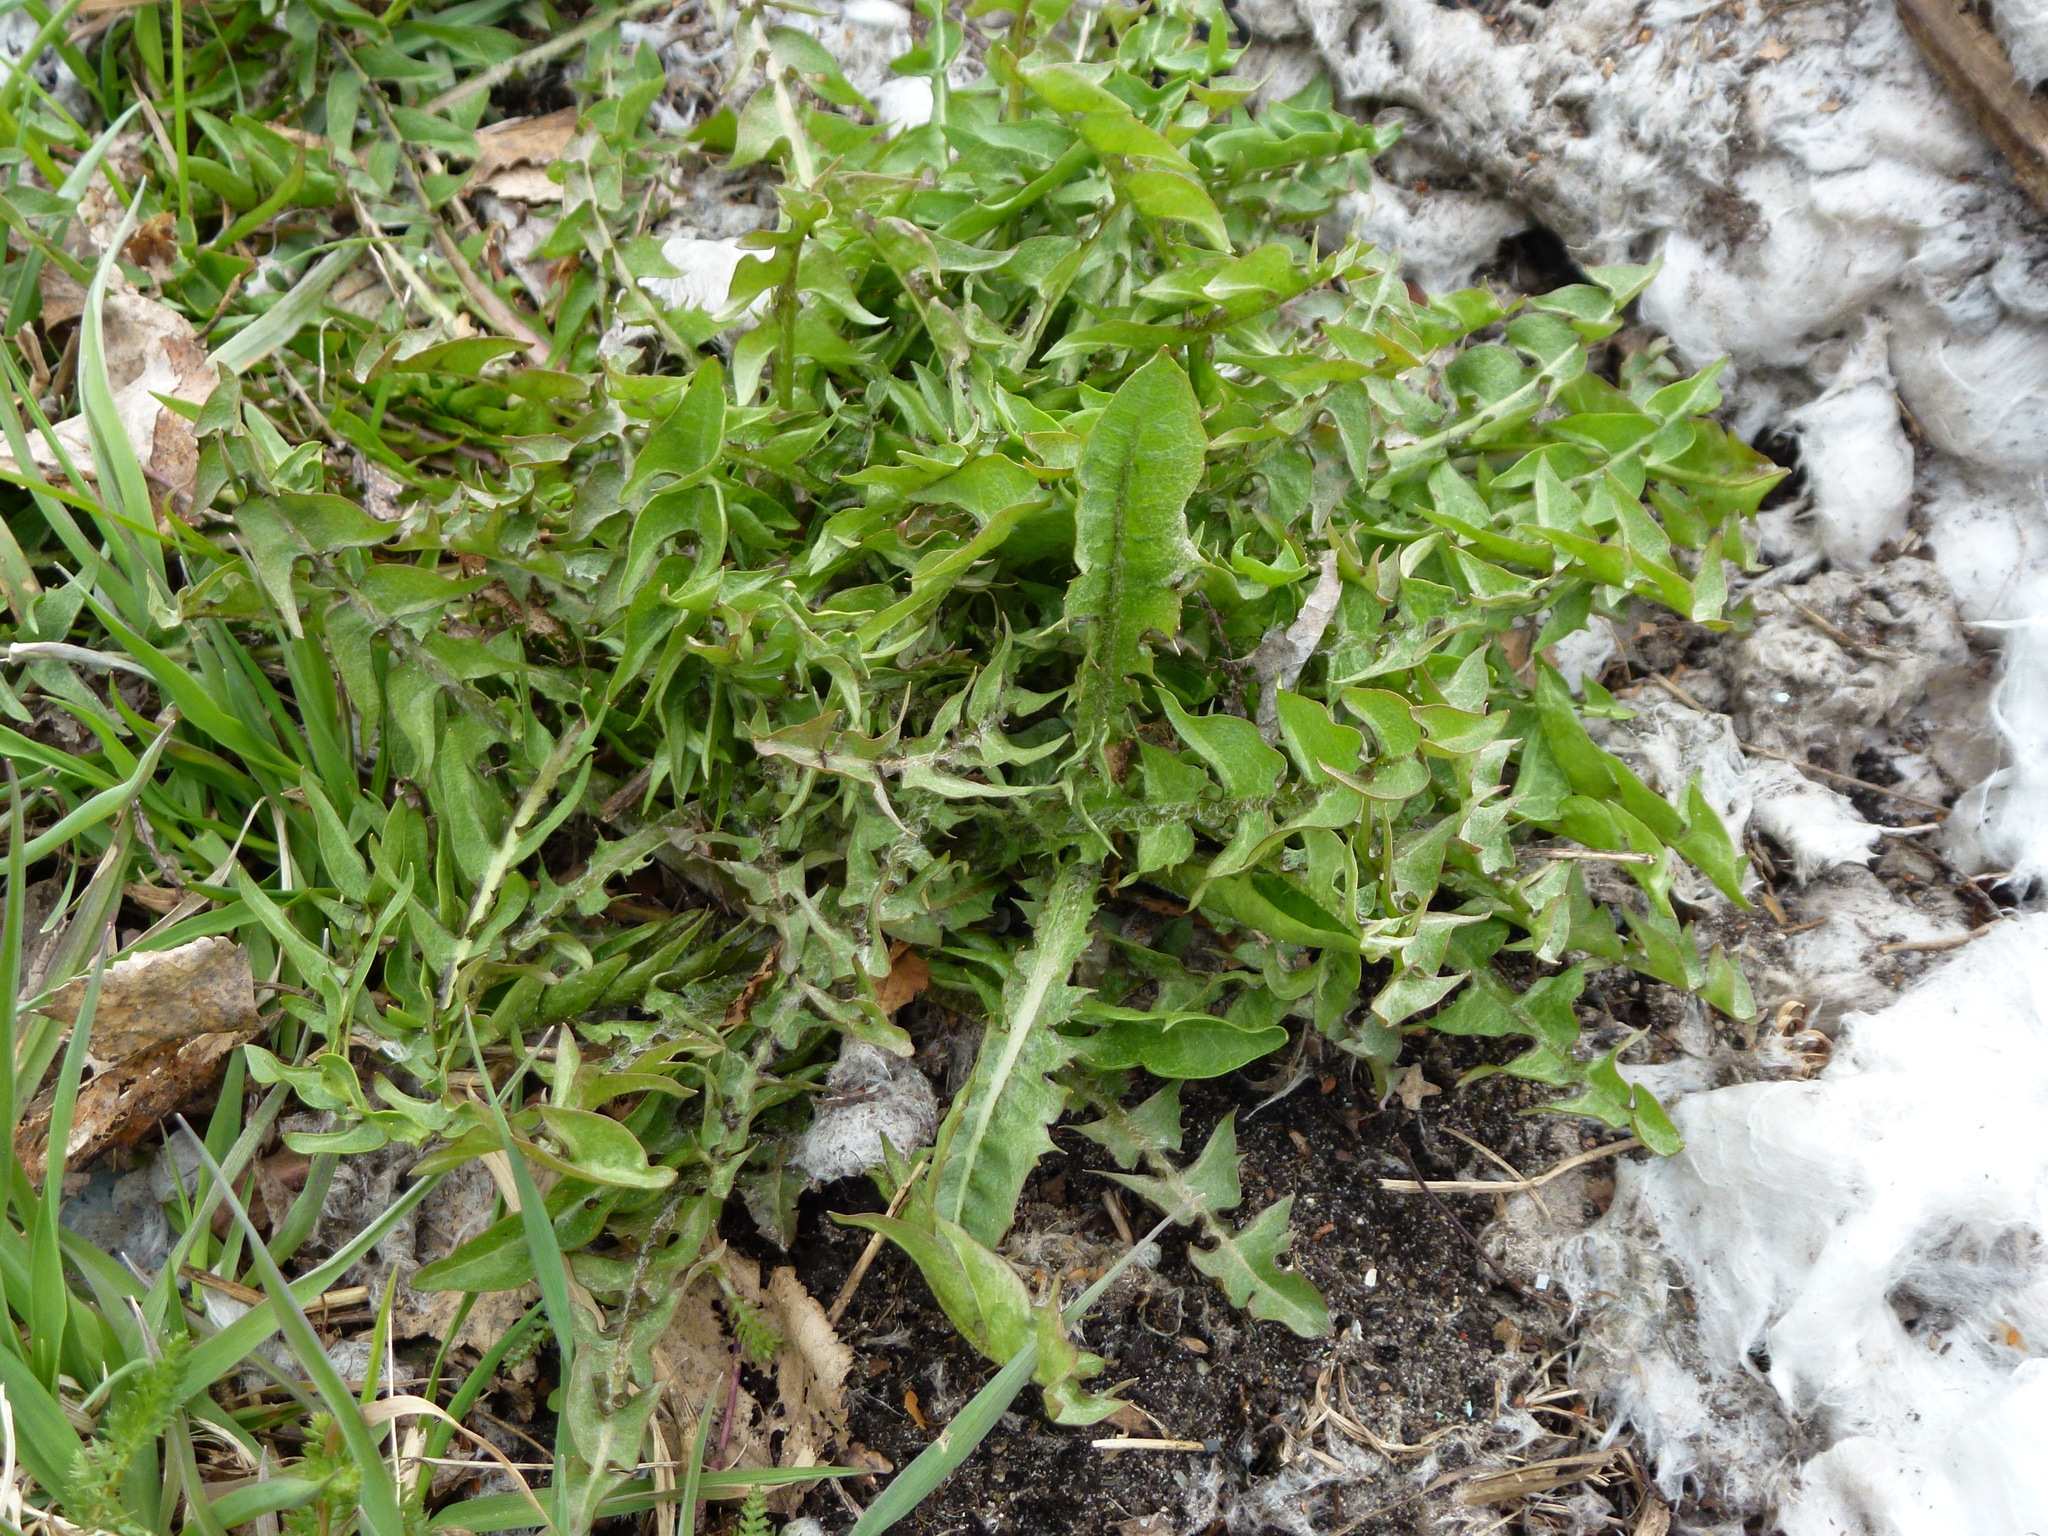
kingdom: Plantae
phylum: Tracheophyta
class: Magnoliopsida
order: Asterales
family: Asteraceae
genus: Taraxacum
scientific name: Taraxacum officinale
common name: Common dandelion
